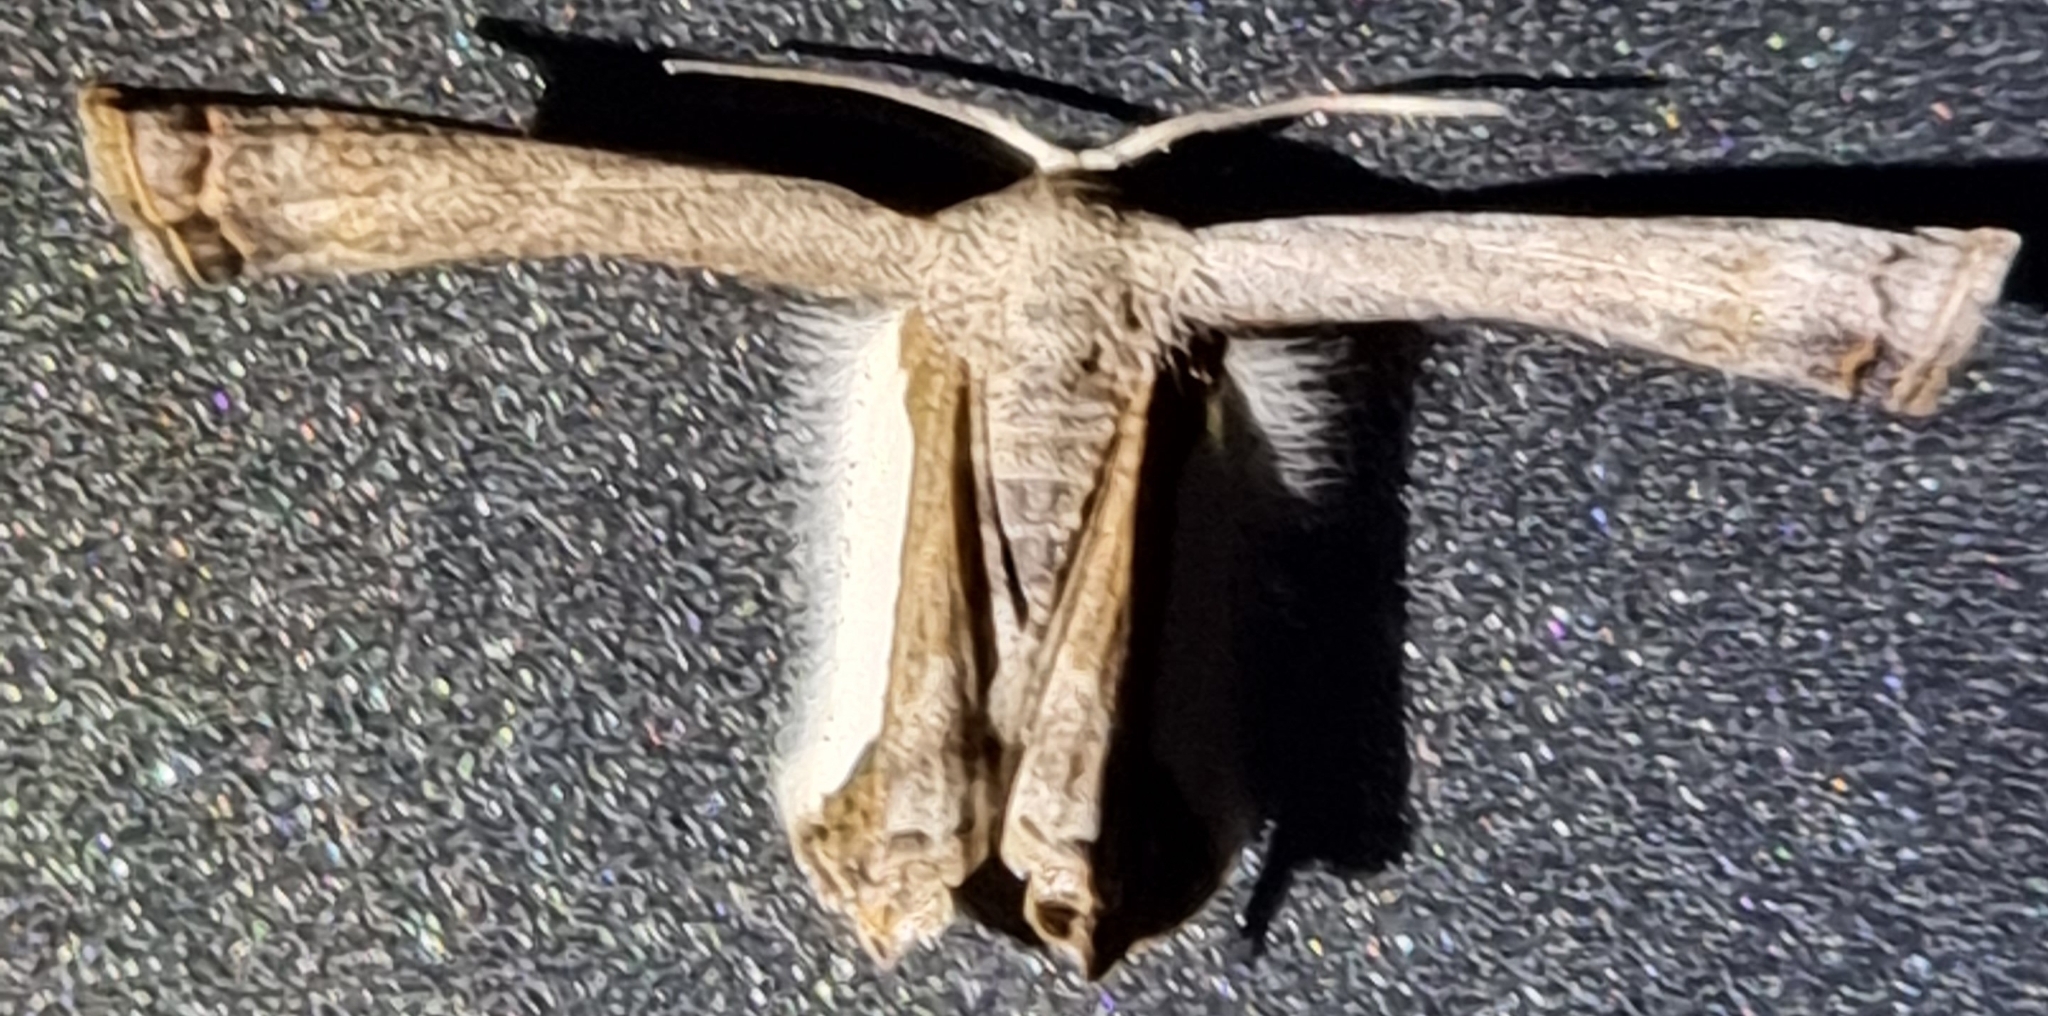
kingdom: Animalia
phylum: Arthropoda
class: Insecta
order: Lepidoptera
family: Uraniidae
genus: Phazaca
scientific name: Phazaca decorata
